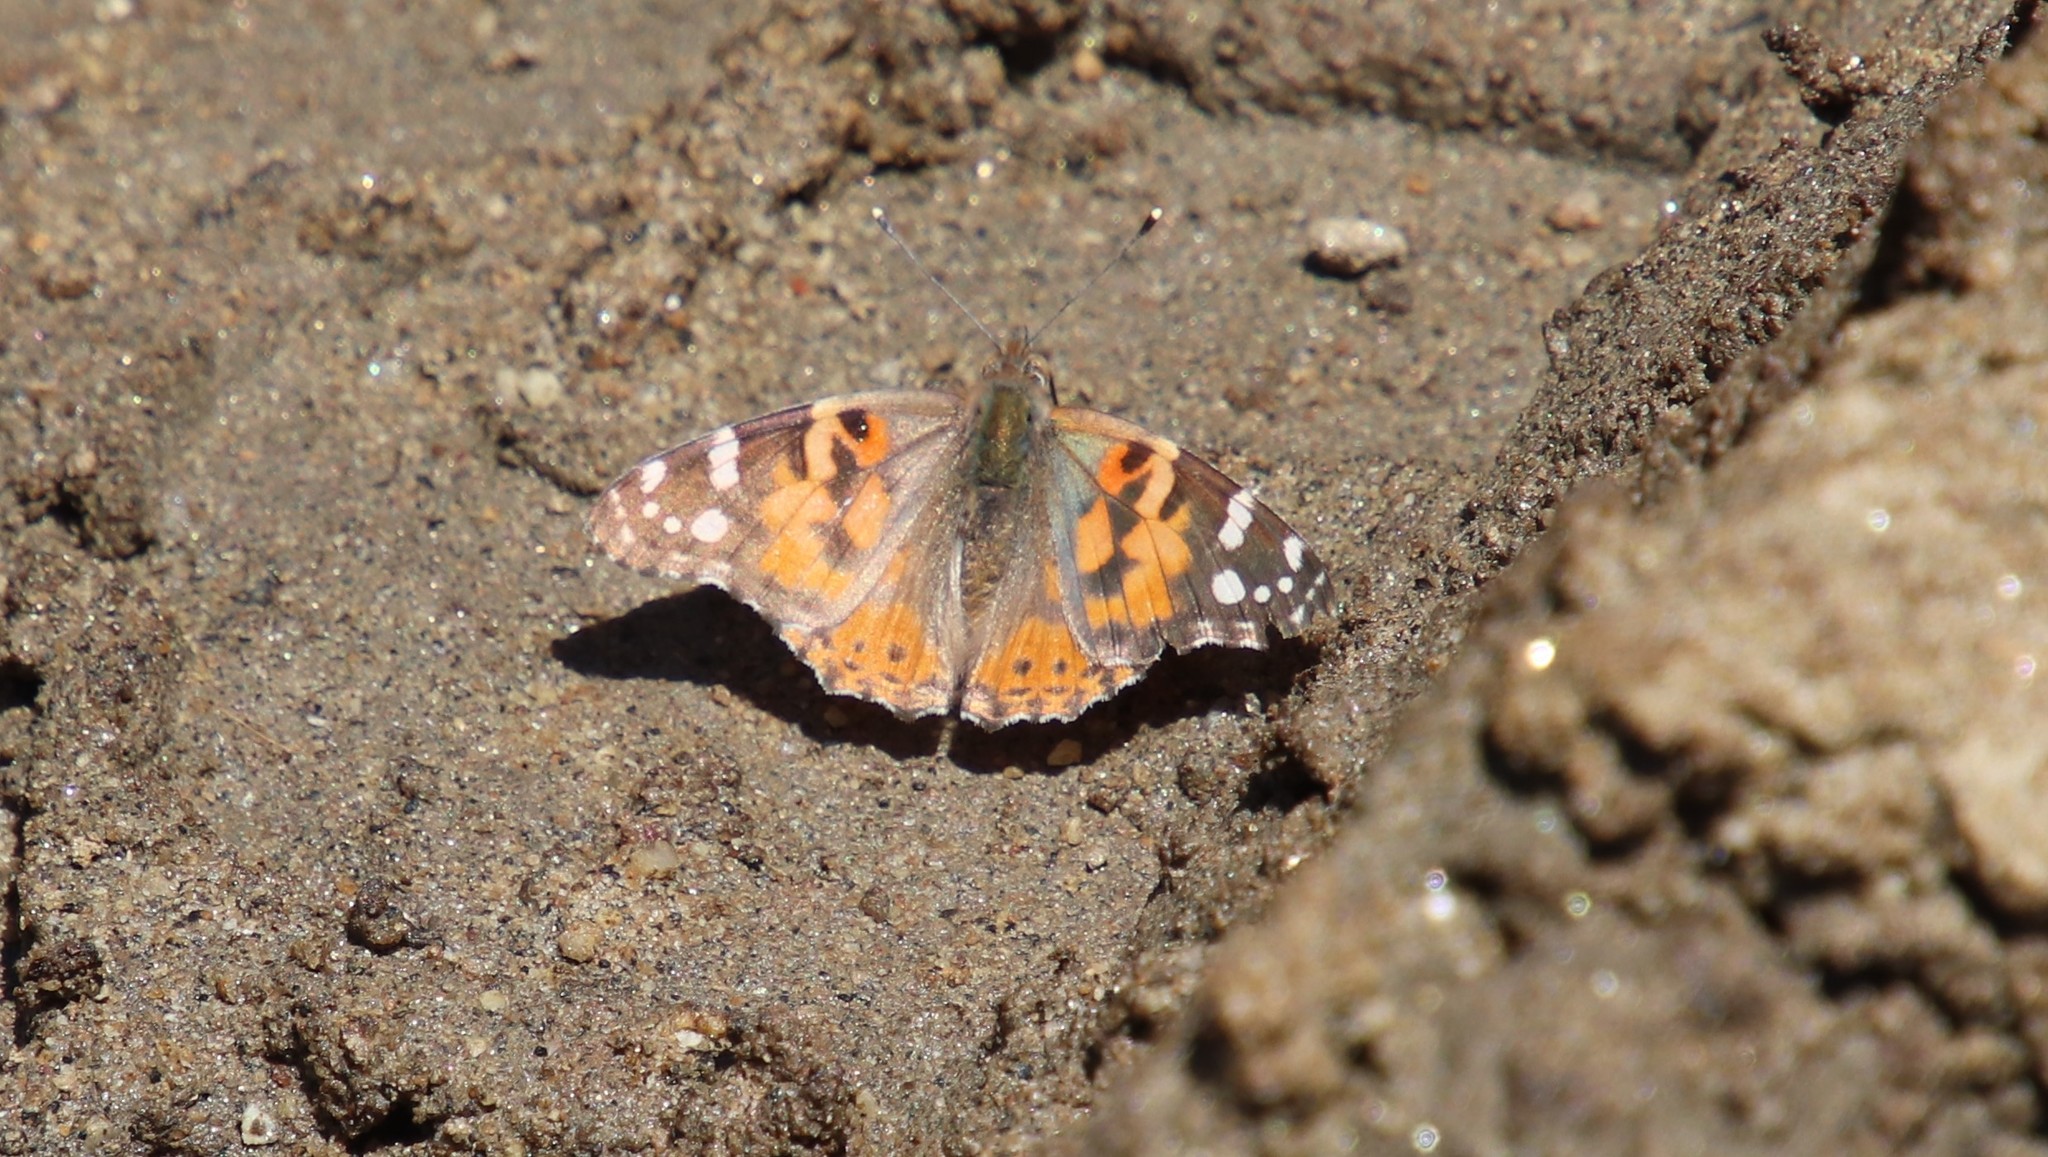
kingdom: Animalia
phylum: Arthropoda
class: Insecta
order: Lepidoptera
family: Nymphalidae
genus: Vanessa
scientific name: Vanessa cardui
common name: Painted lady
